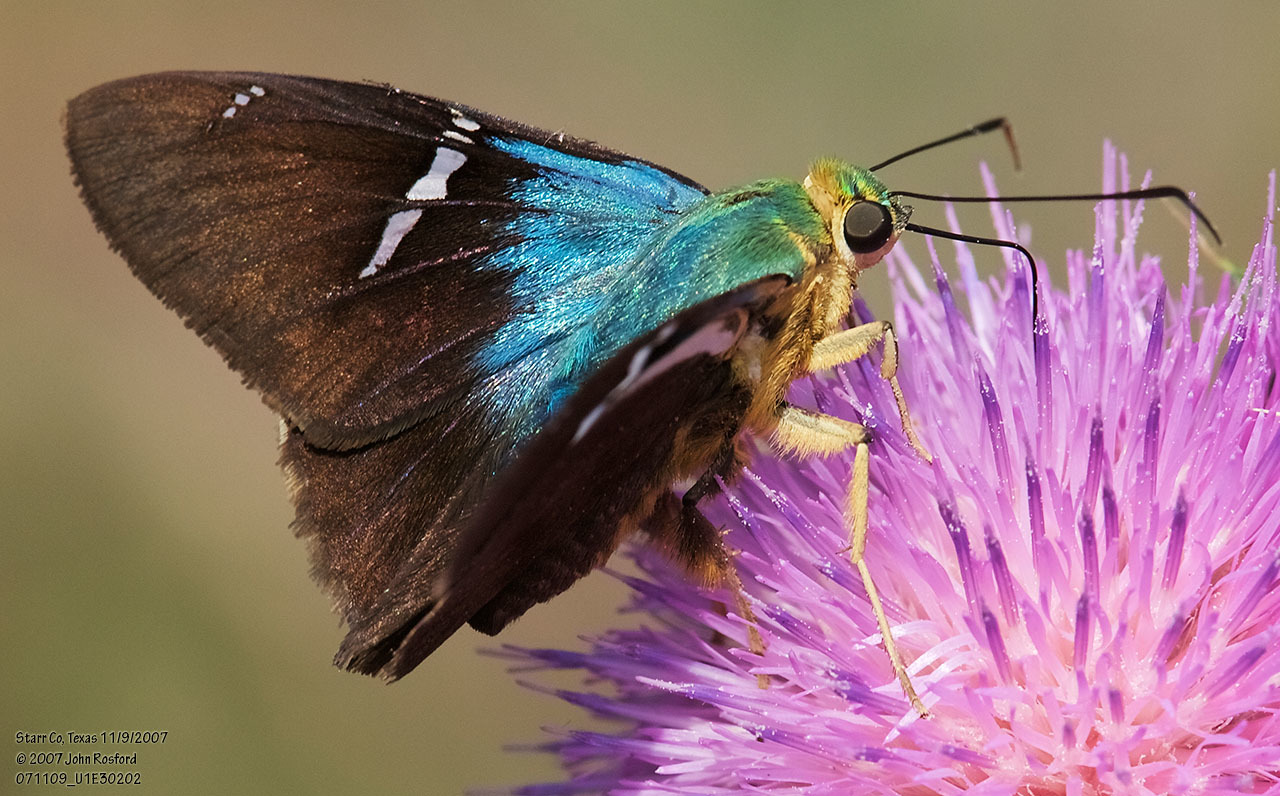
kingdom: Animalia
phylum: Arthropoda
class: Insecta
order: Lepidoptera
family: Hesperiidae
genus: Astraptes
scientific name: Astraptes fulgerator
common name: Two-barred flasher
